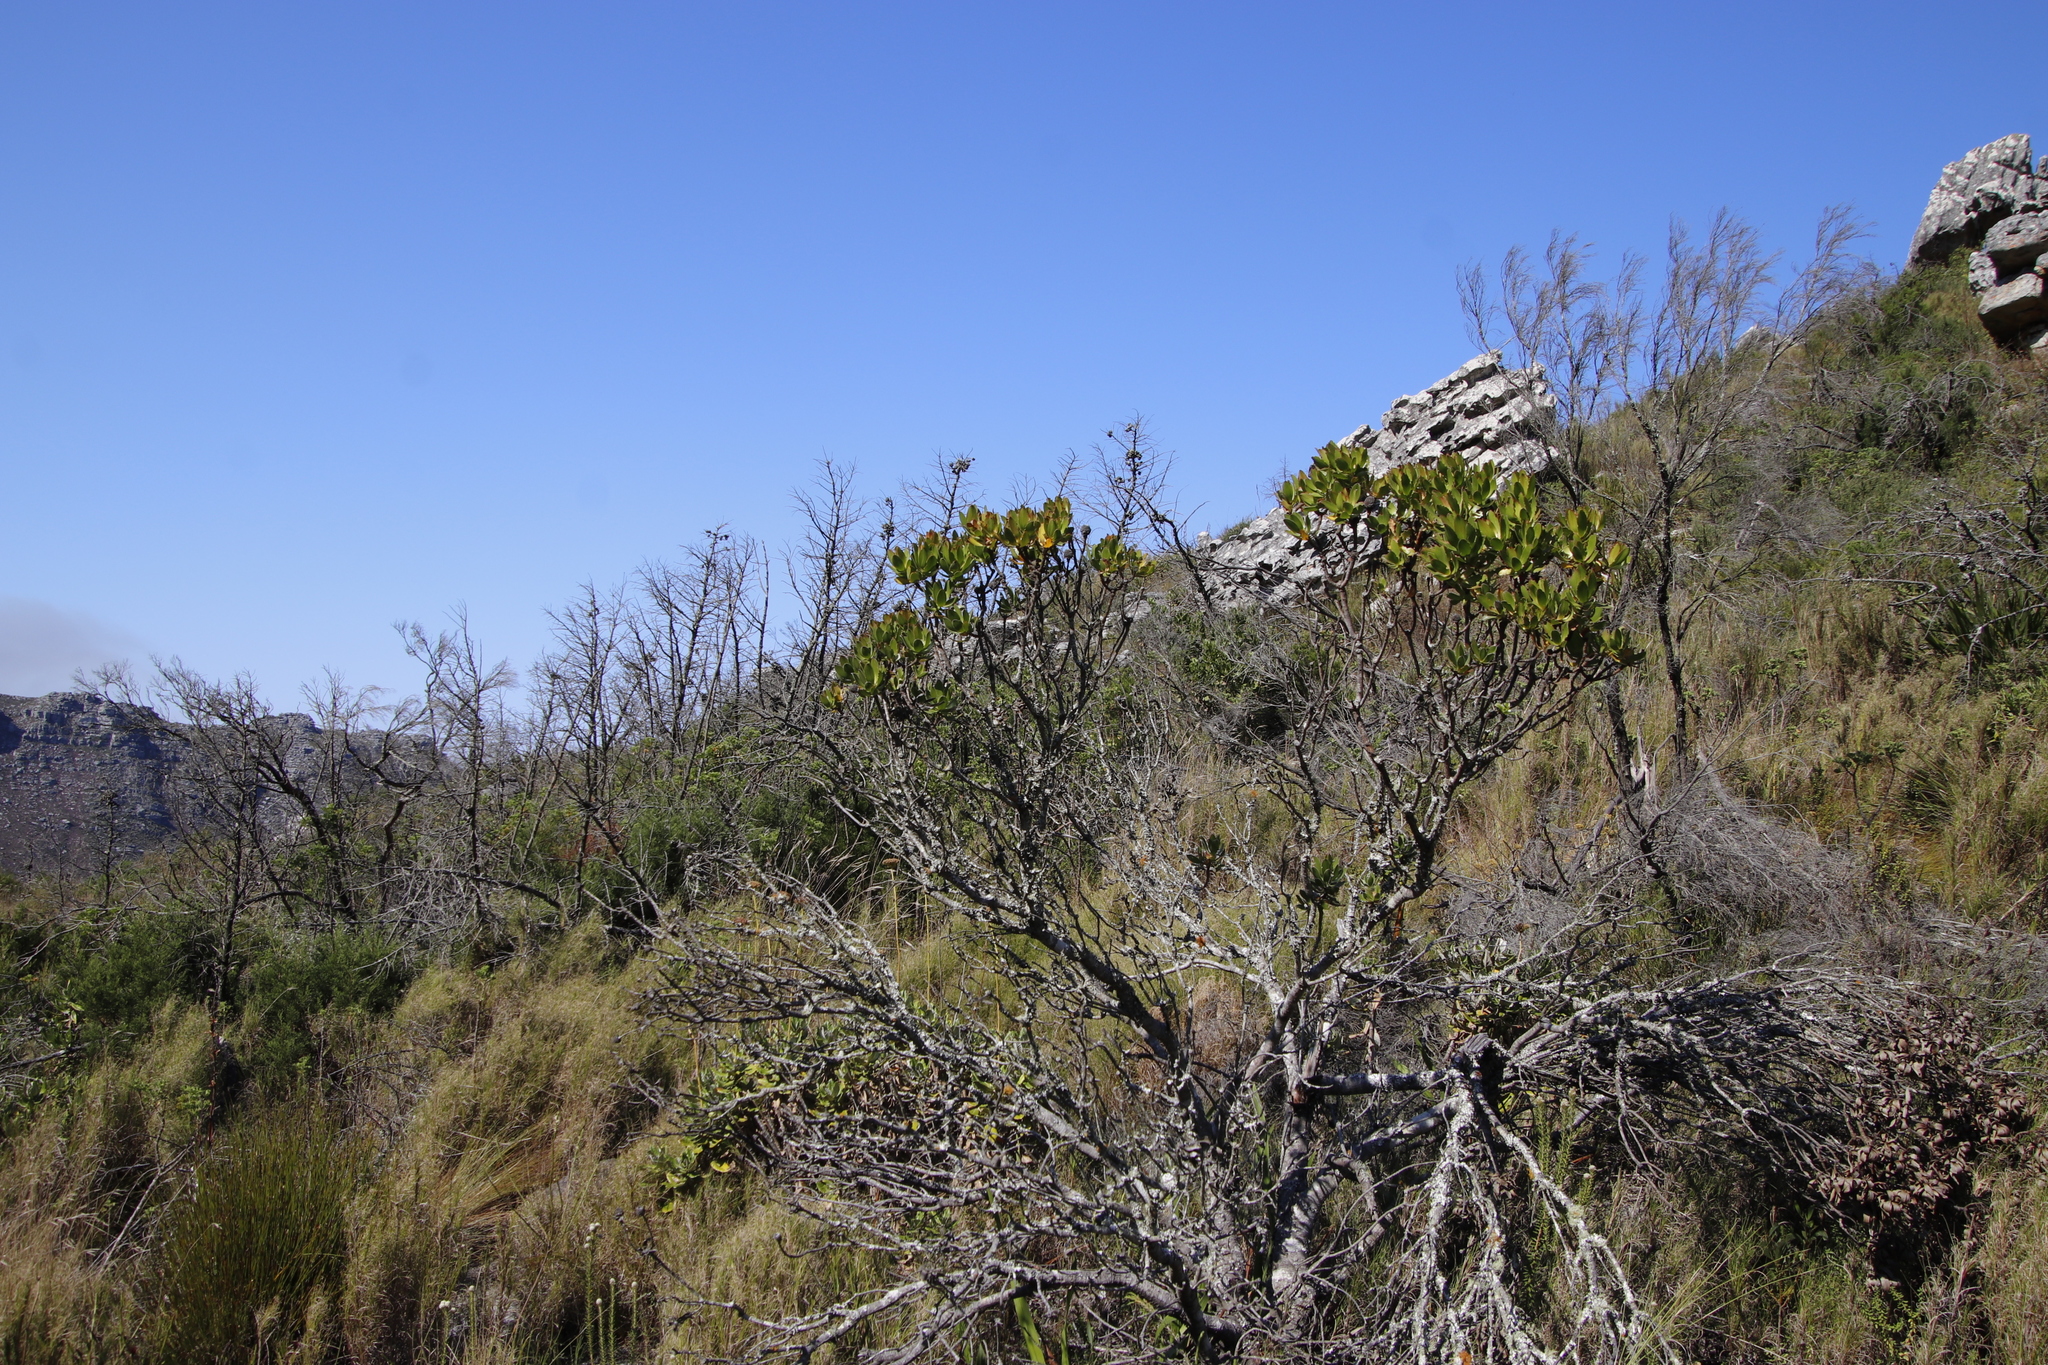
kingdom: Plantae
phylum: Tracheophyta
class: Magnoliopsida
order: Proteales
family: Proteaceae
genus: Leucadendron
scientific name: Leucadendron strobilinum
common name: Mountain rose
